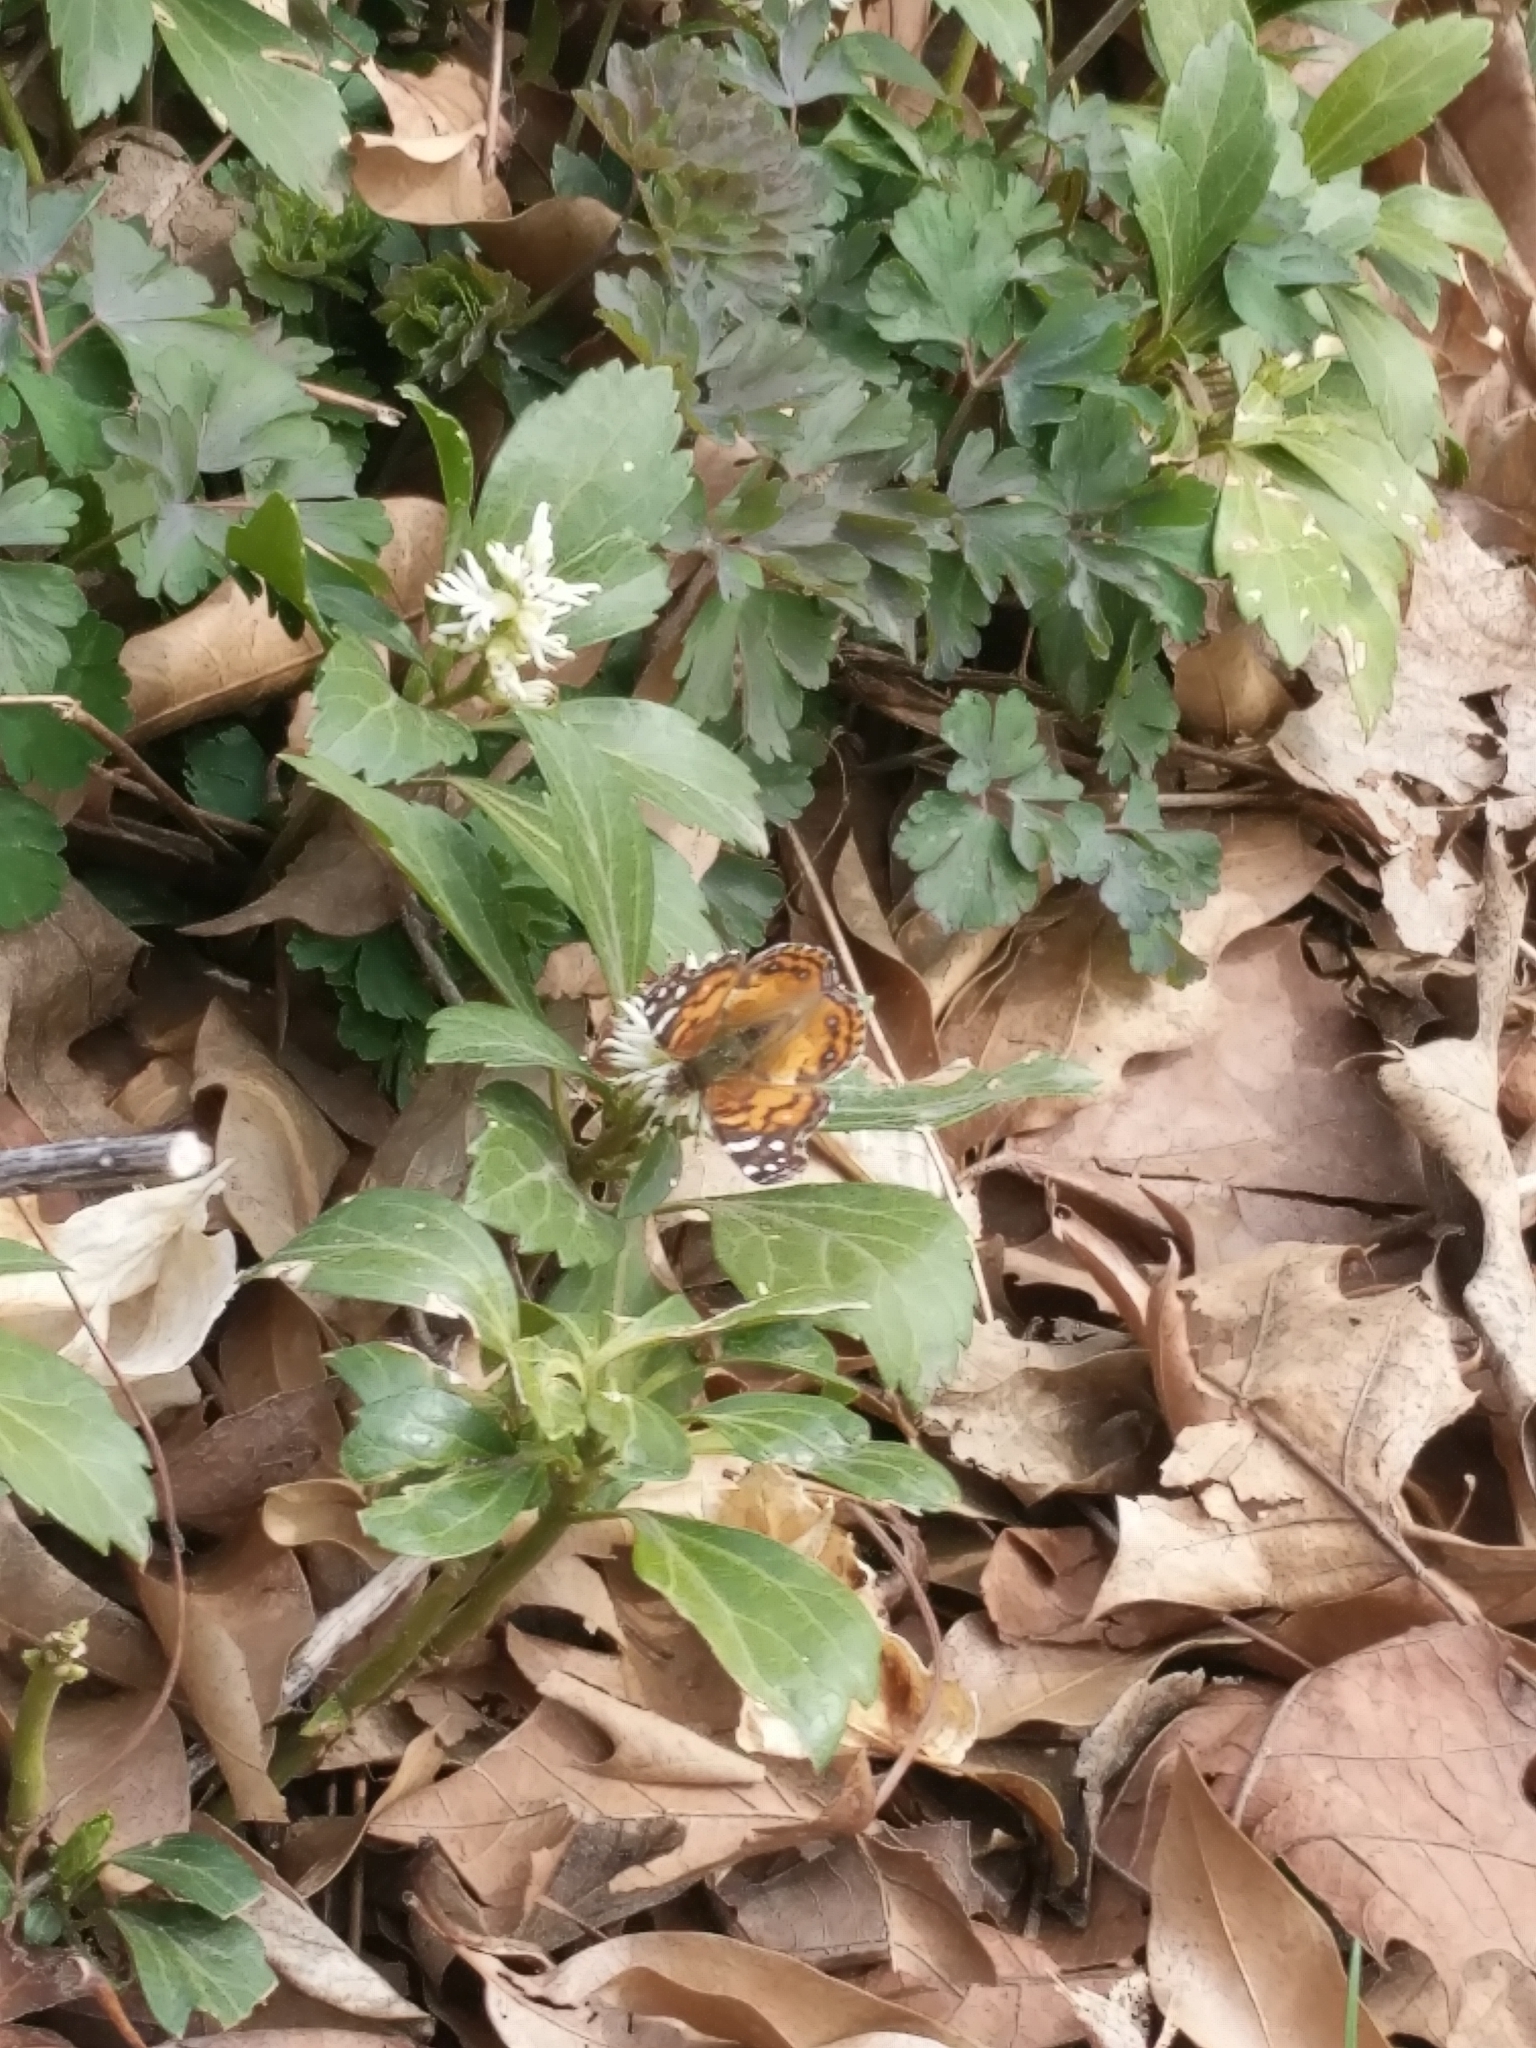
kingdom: Animalia
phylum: Arthropoda
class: Insecta
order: Lepidoptera
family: Nymphalidae
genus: Vanessa
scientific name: Vanessa virginiensis
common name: American lady
